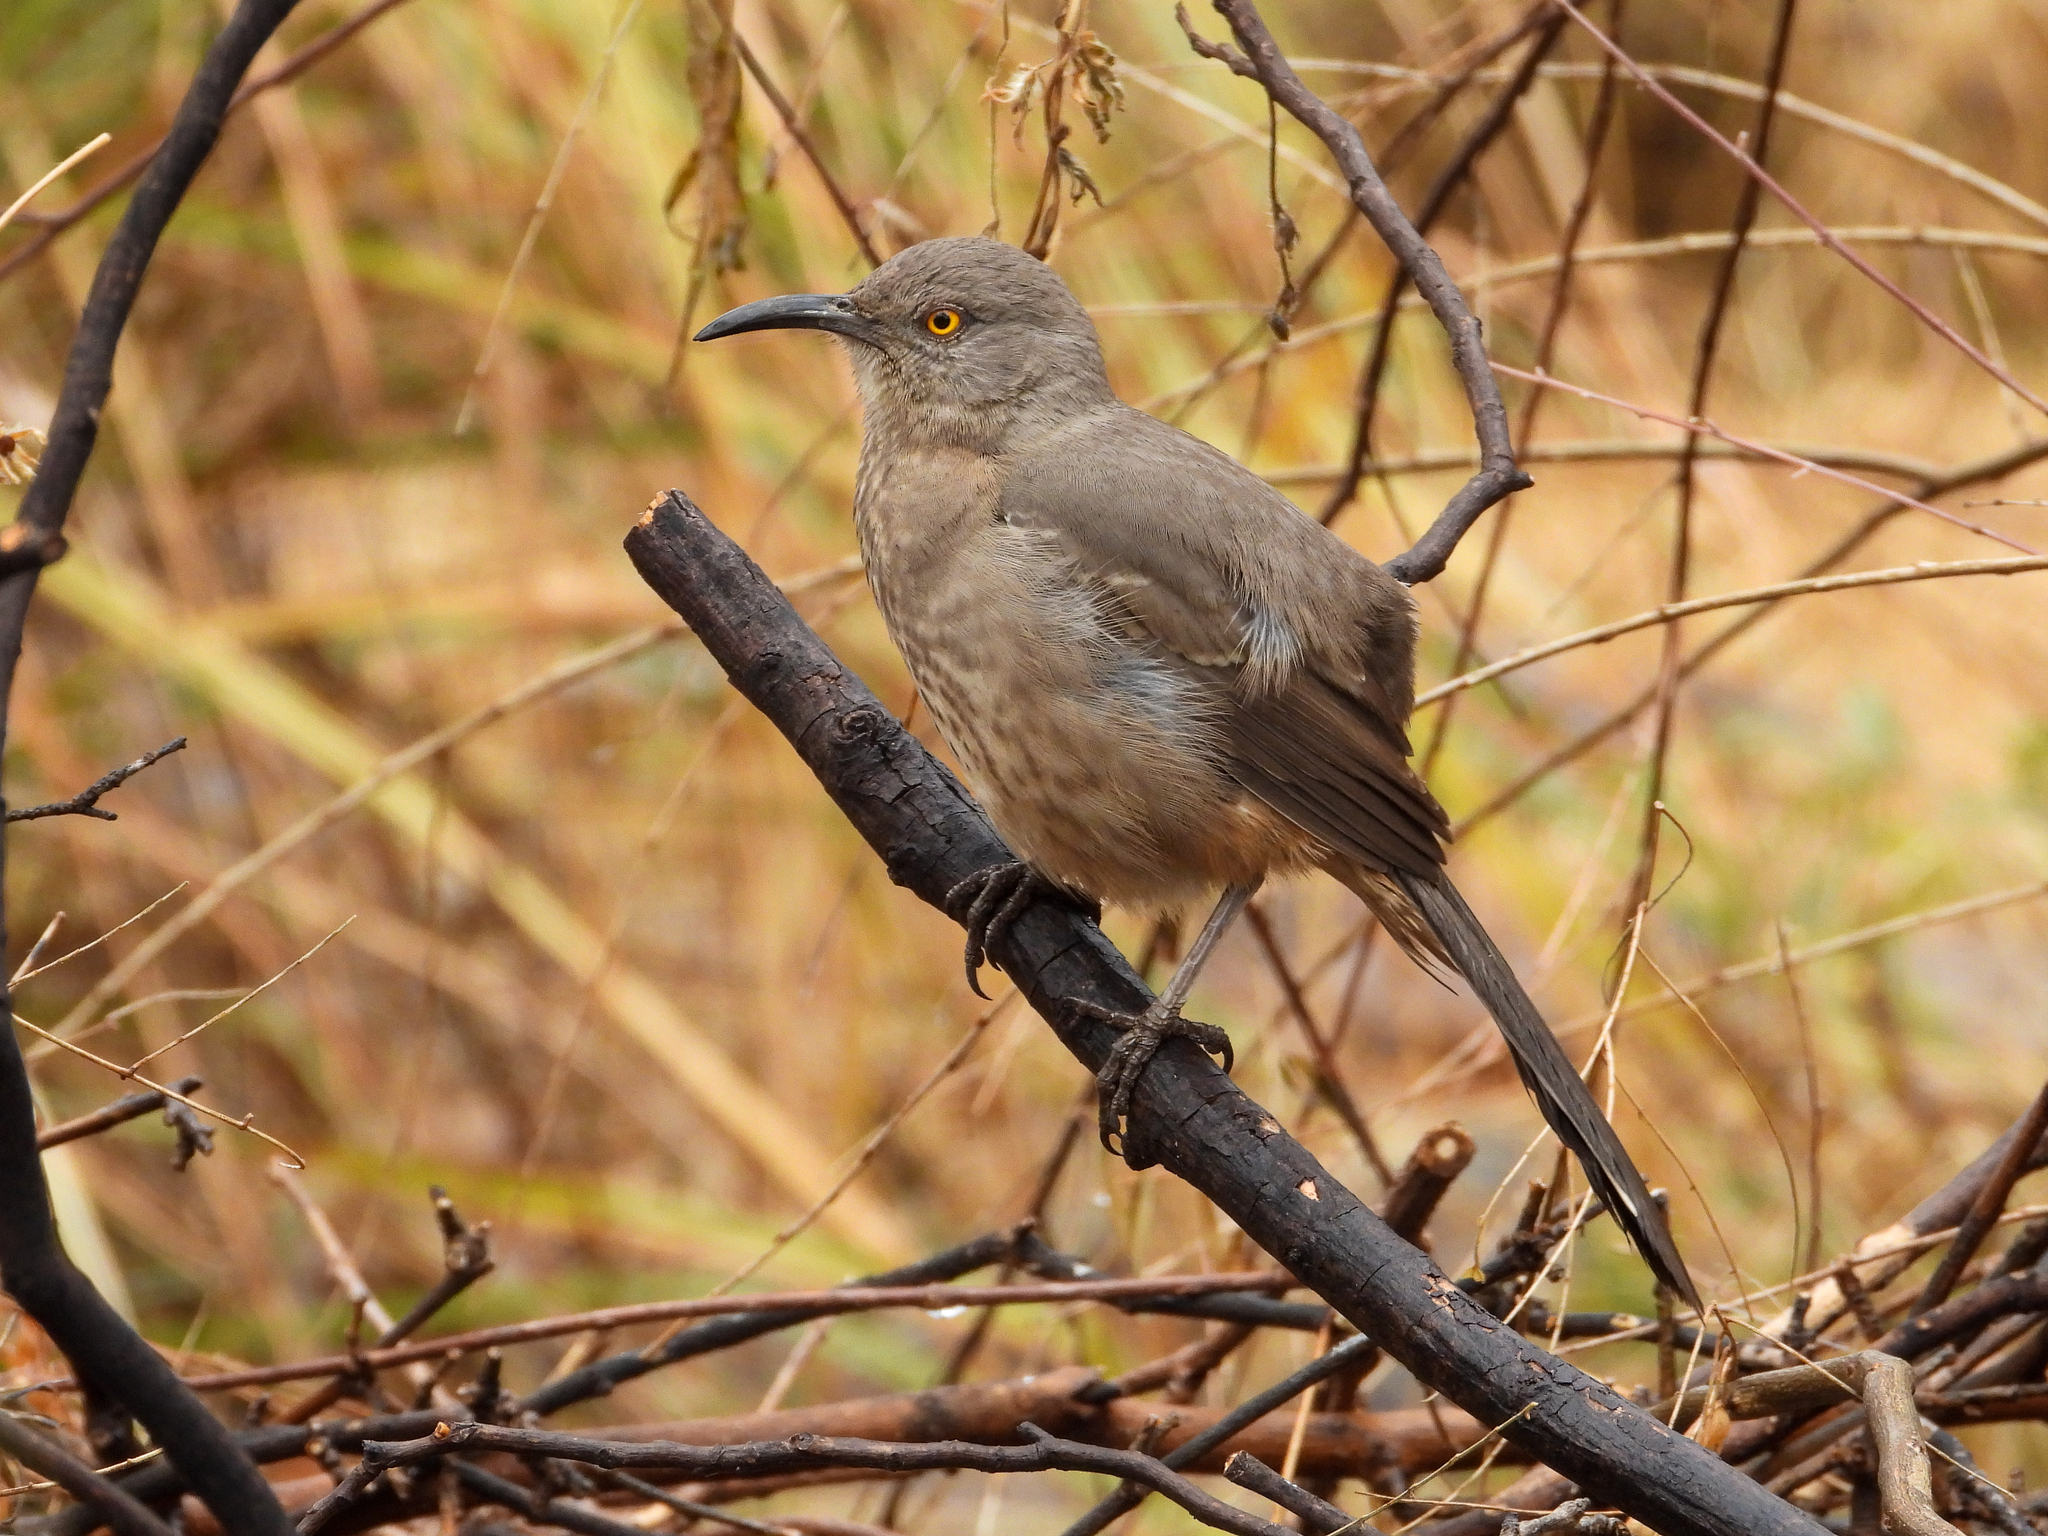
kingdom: Animalia
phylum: Chordata
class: Aves
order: Passeriformes
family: Mimidae
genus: Toxostoma
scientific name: Toxostoma curvirostre
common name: Curve-billed thrasher
